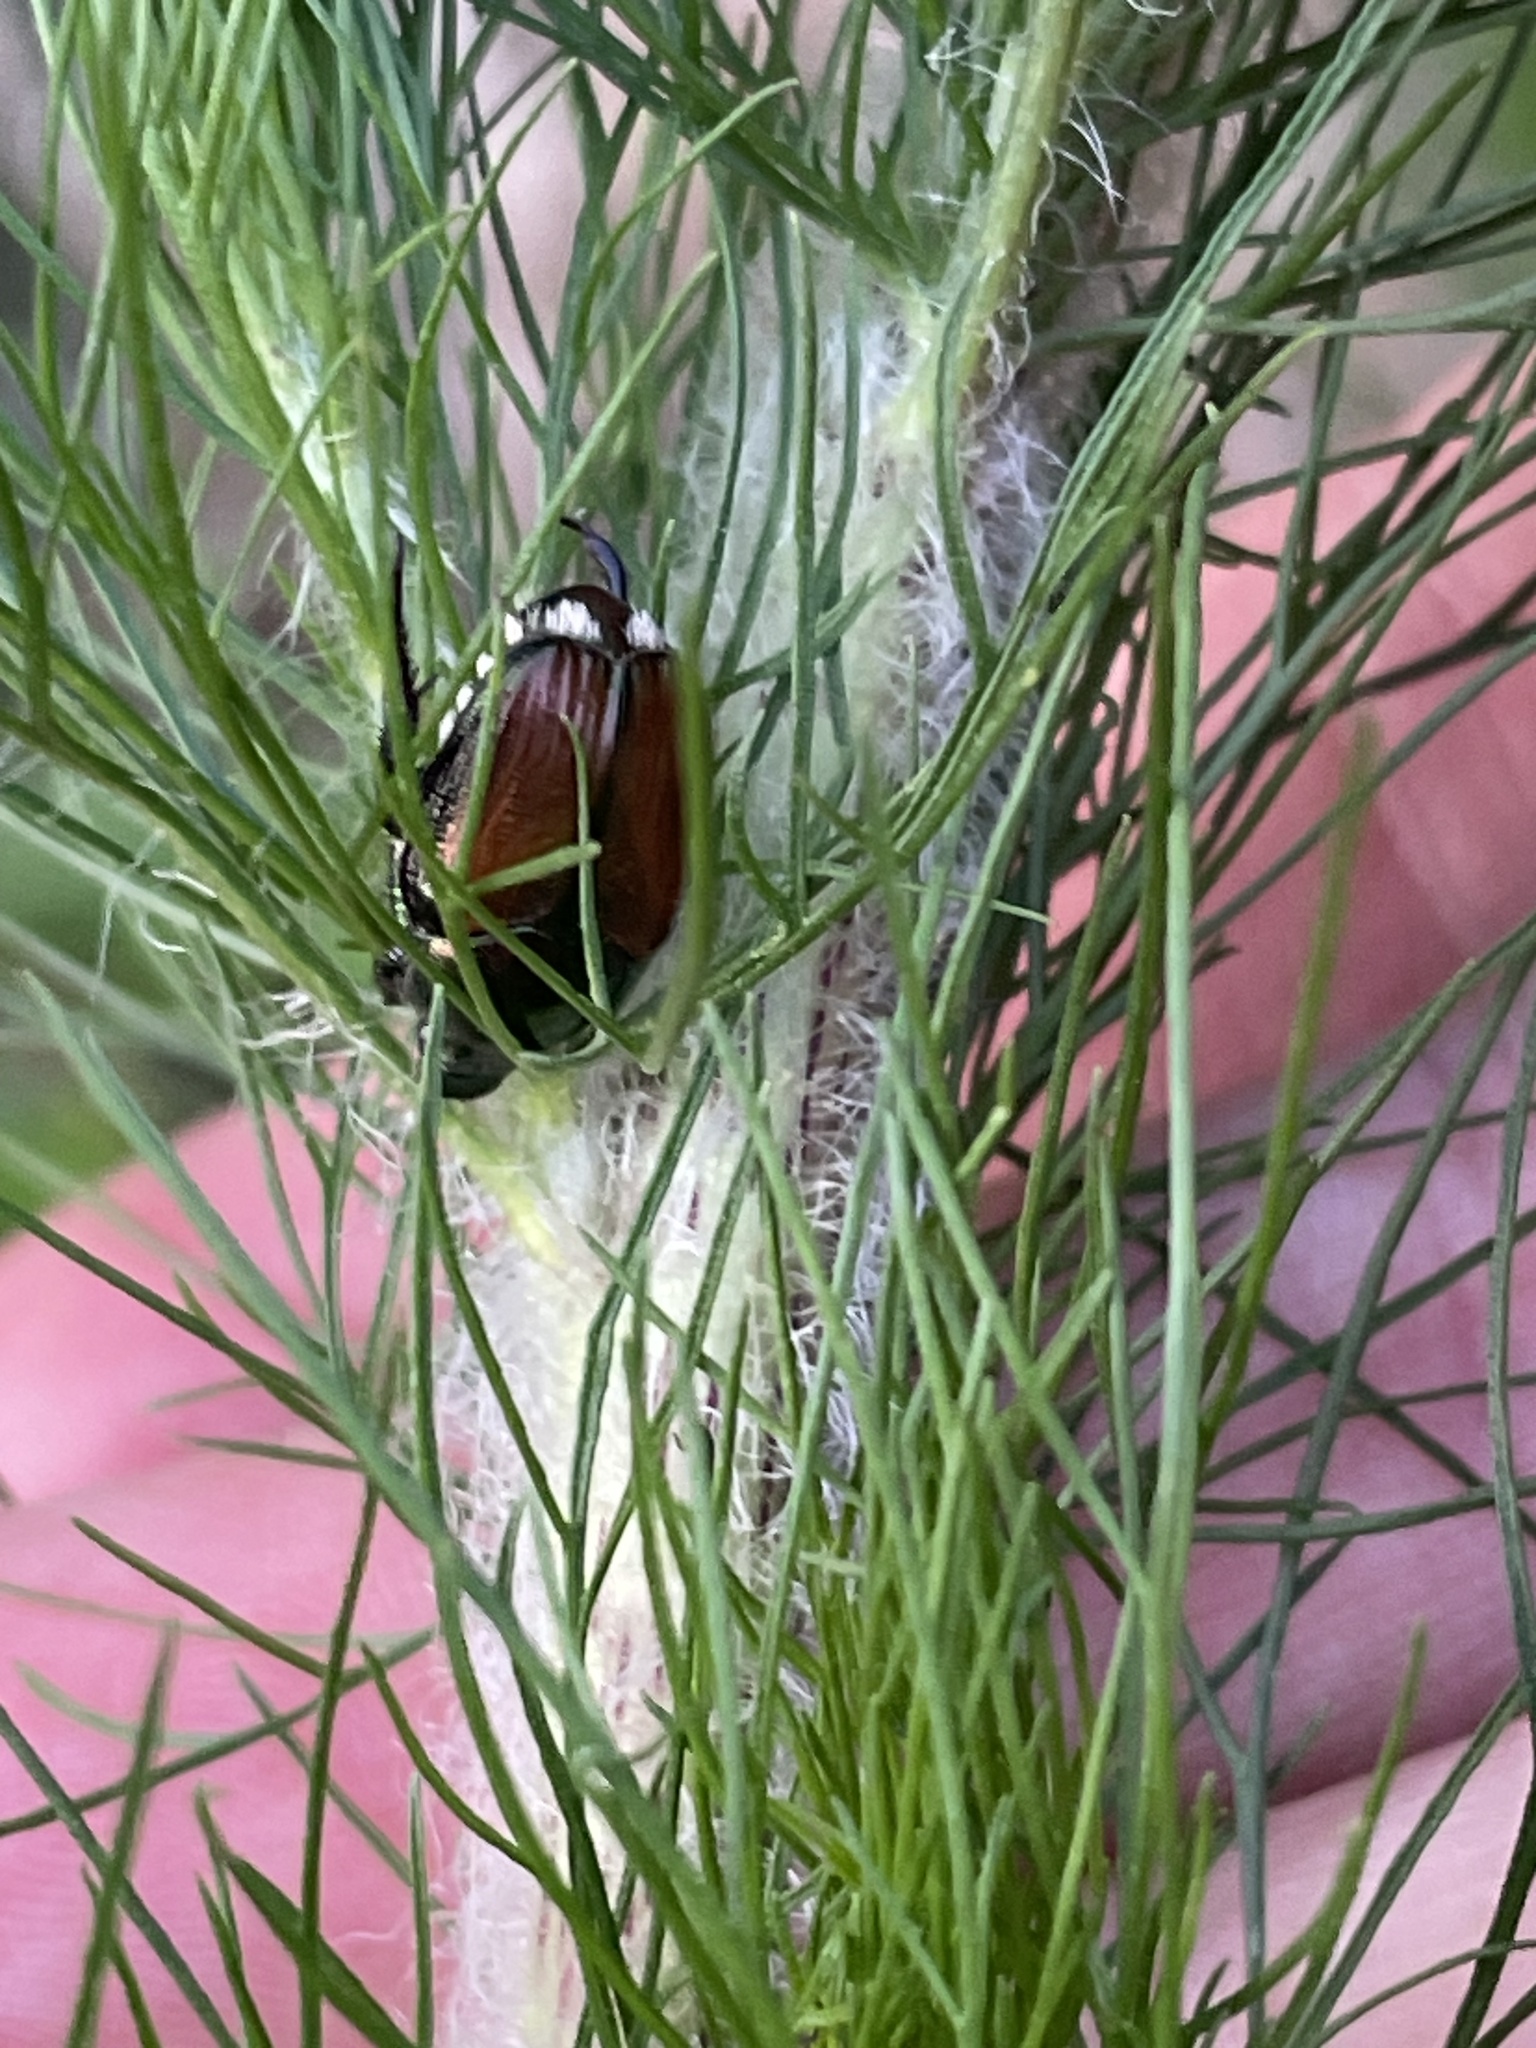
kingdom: Animalia
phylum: Arthropoda
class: Insecta
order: Coleoptera
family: Scarabaeidae
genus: Popillia
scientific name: Popillia japonica
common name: Japanese beetle
